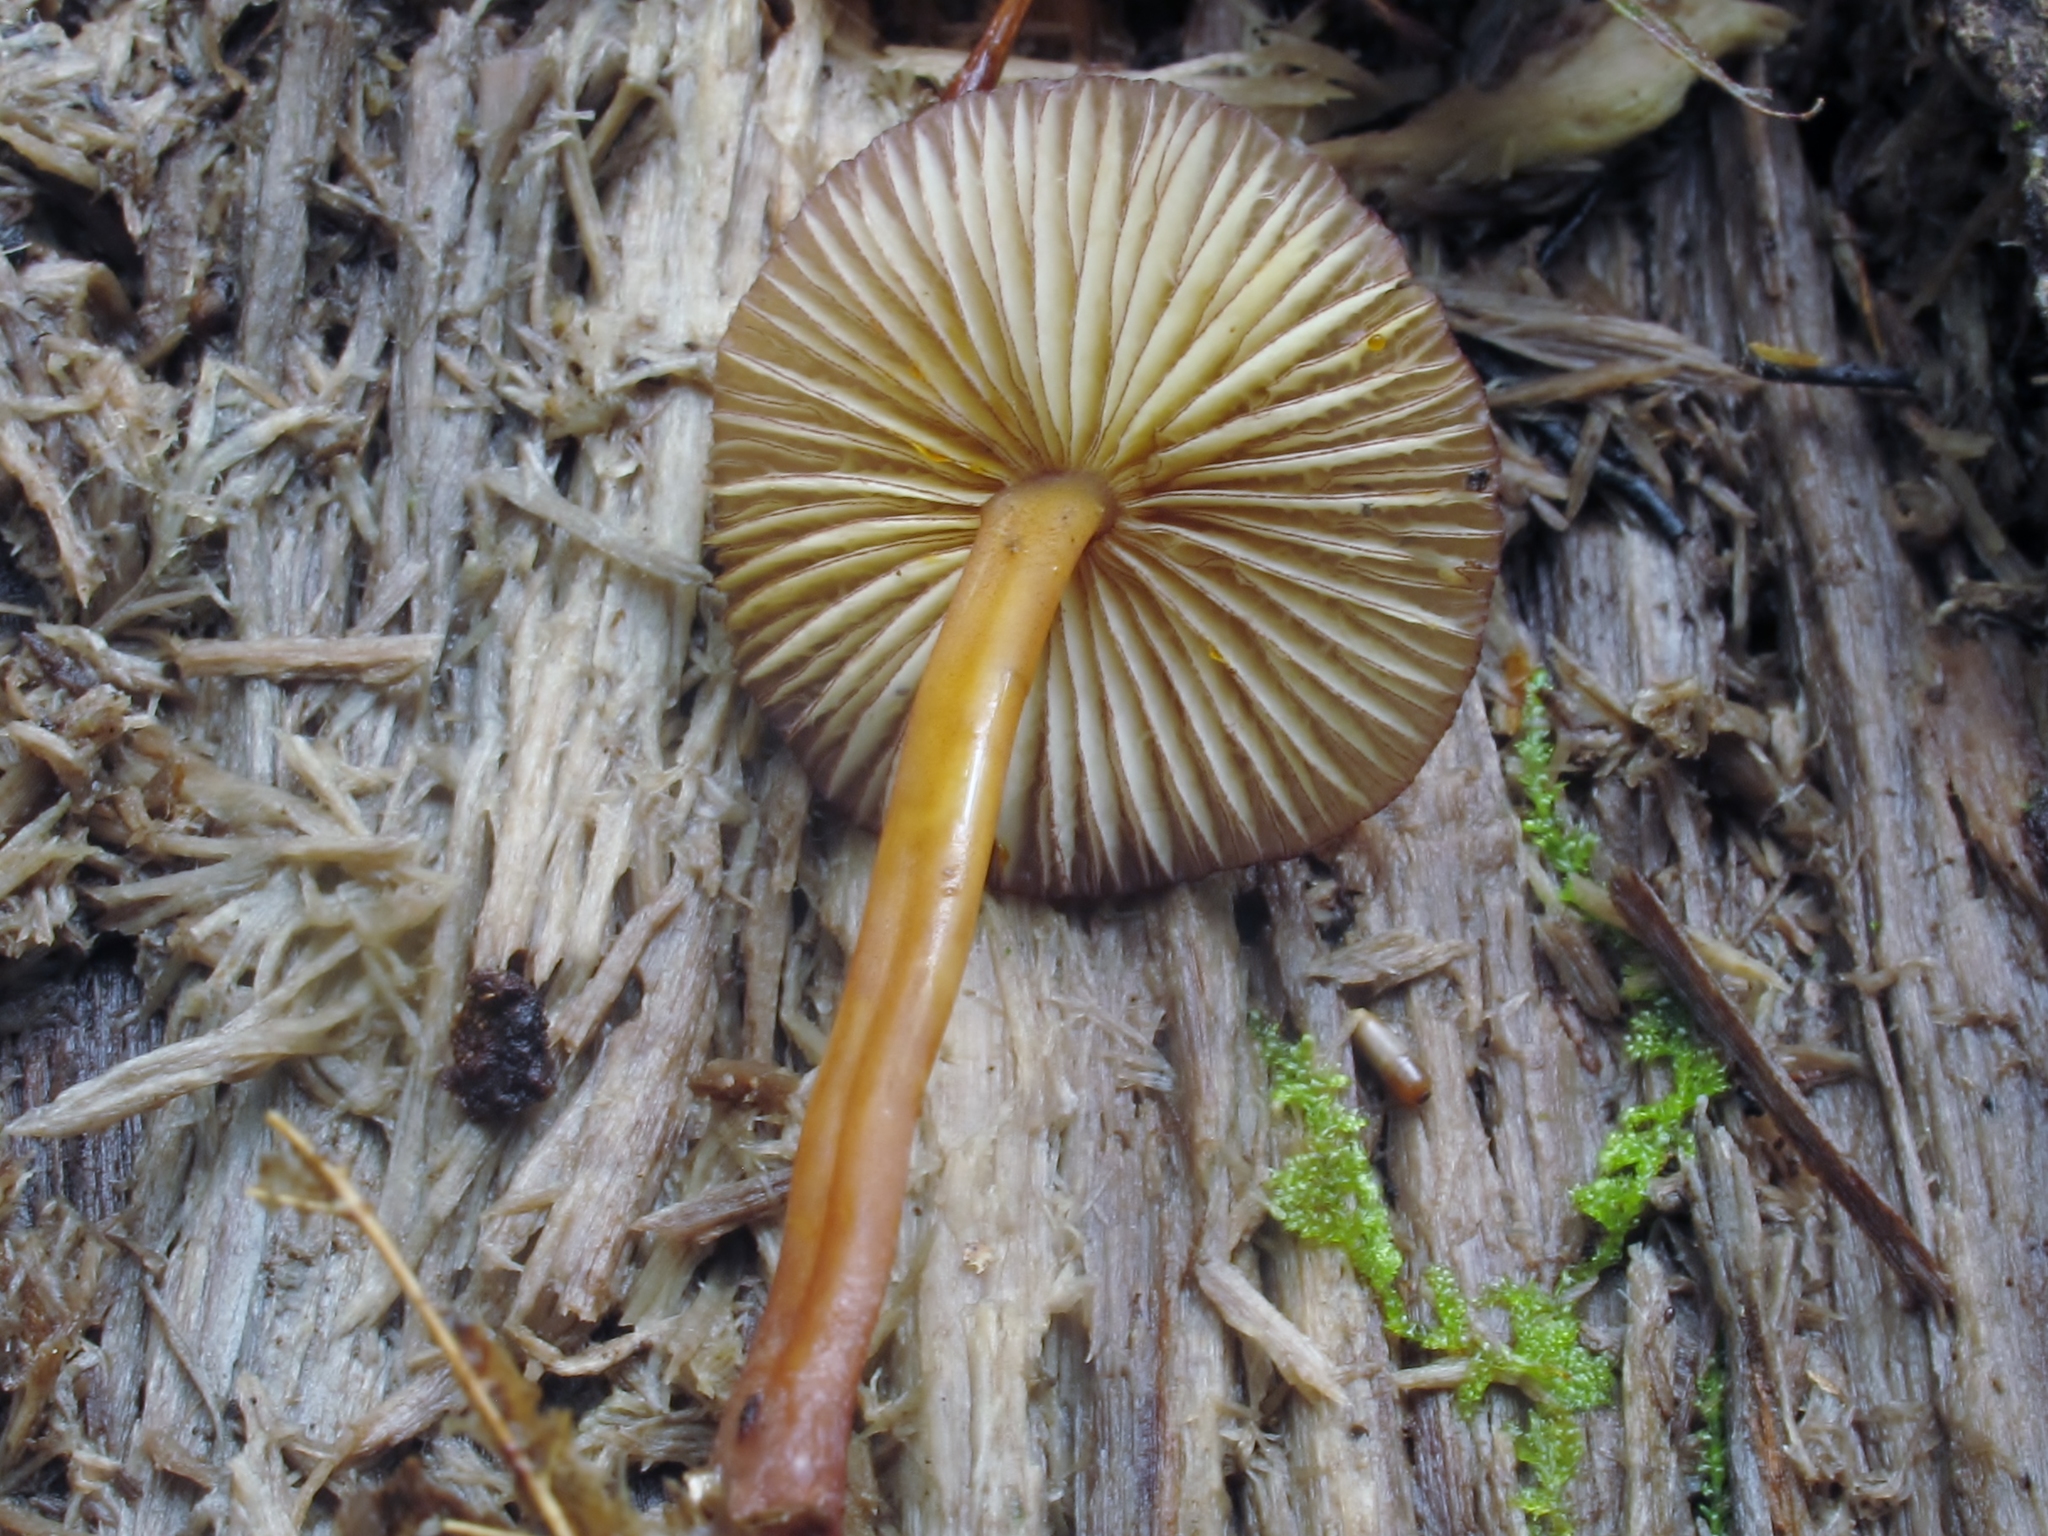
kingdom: Fungi
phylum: Basidiomycota
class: Agaricomycetes
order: Agaricales
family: Mycenaceae
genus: Mycena
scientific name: Mycena atkinsoniana
